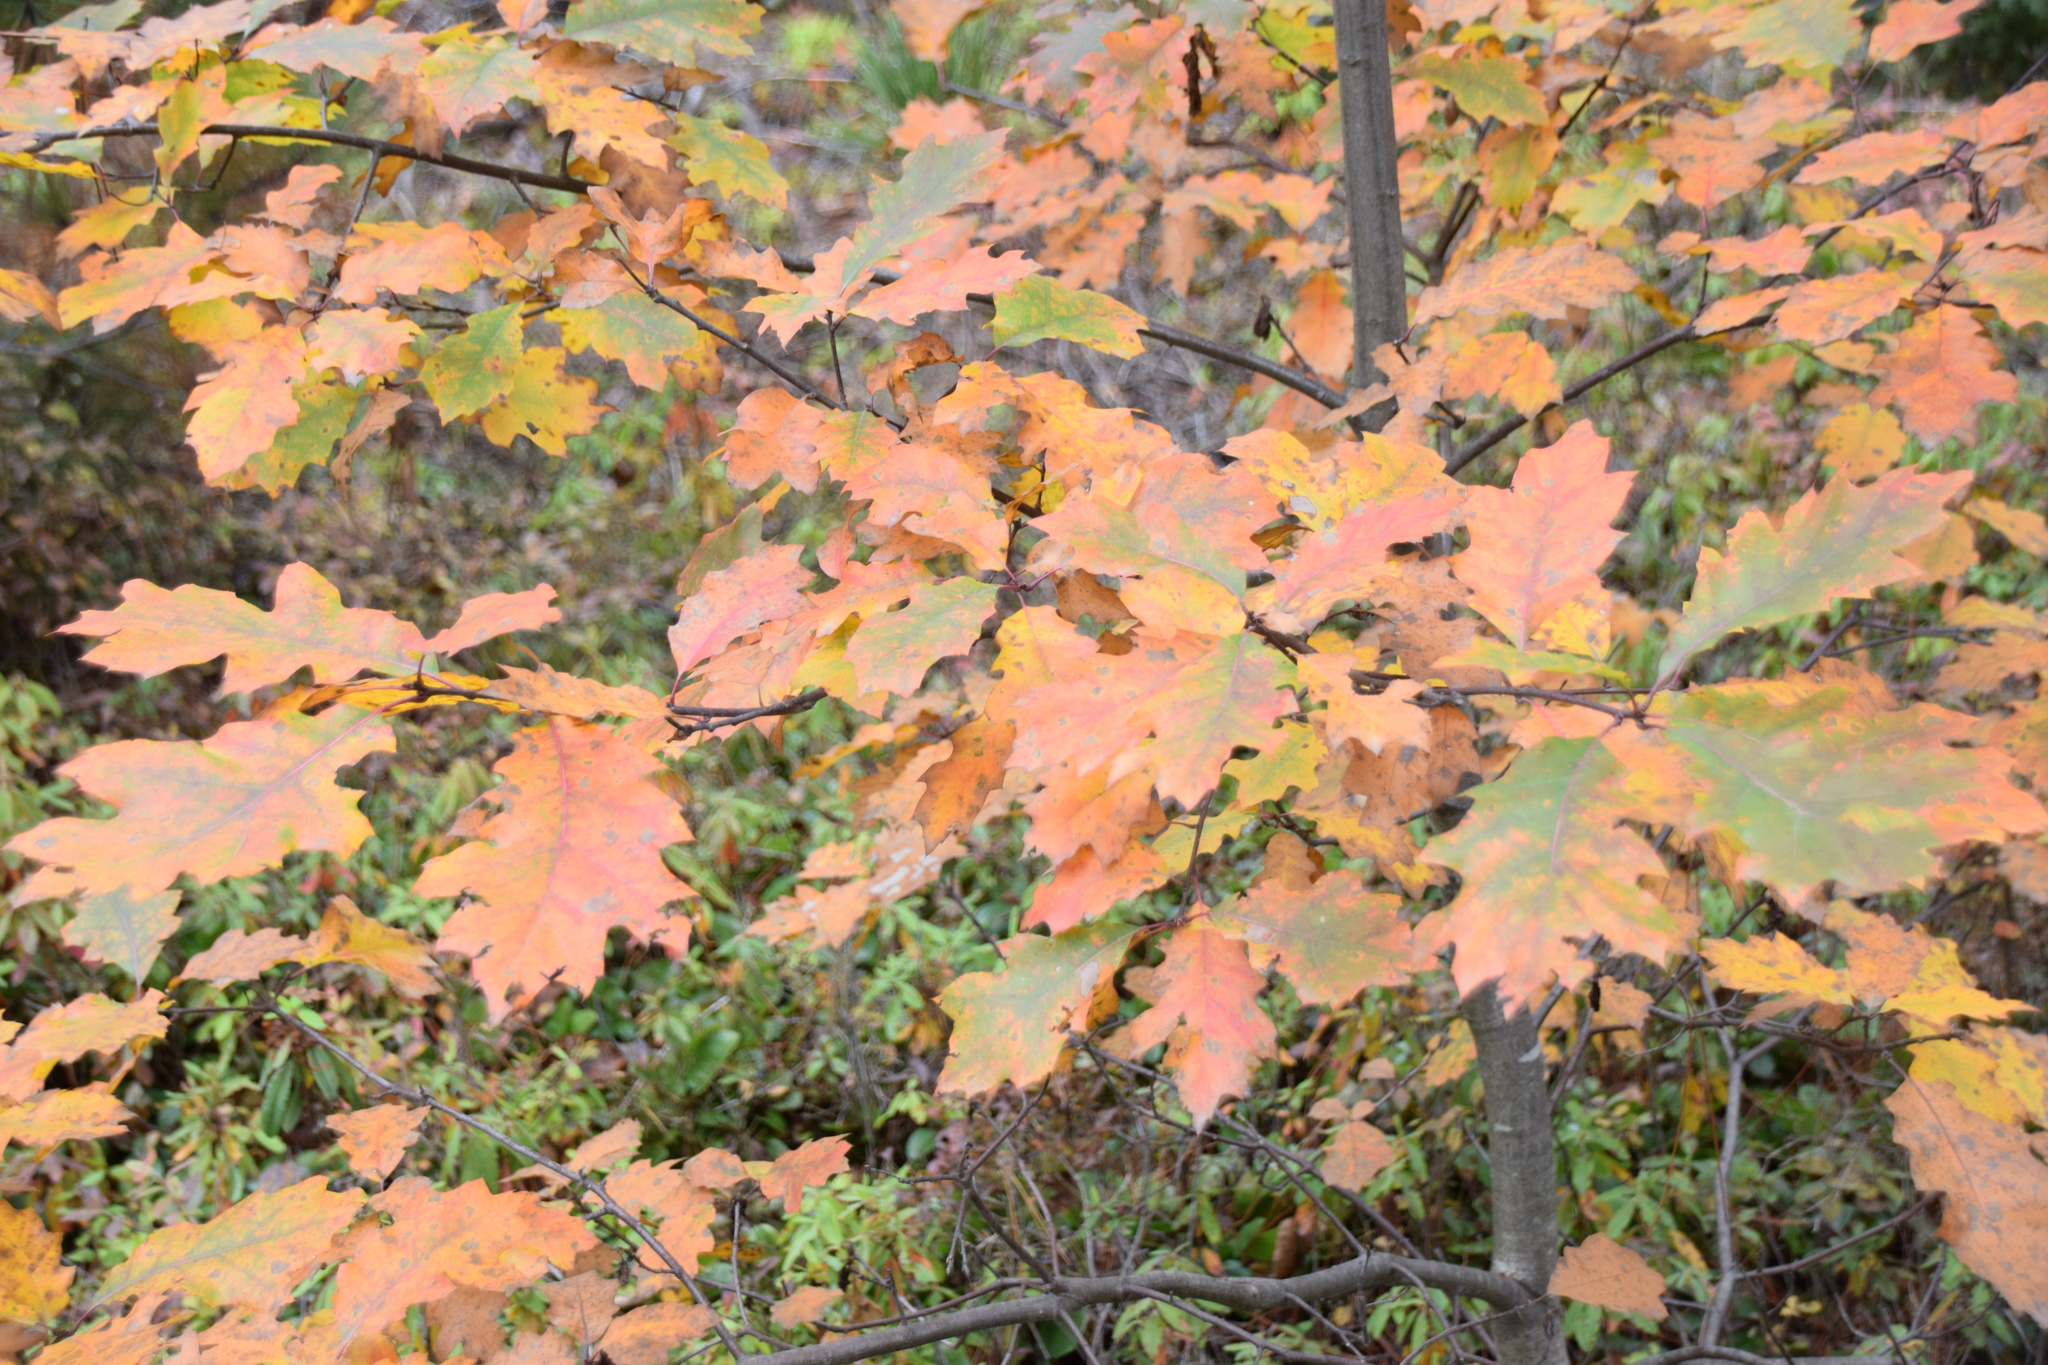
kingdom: Plantae
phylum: Tracheophyta
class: Magnoliopsida
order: Fagales
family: Fagaceae
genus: Quercus
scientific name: Quercus rubra
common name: Red oak
